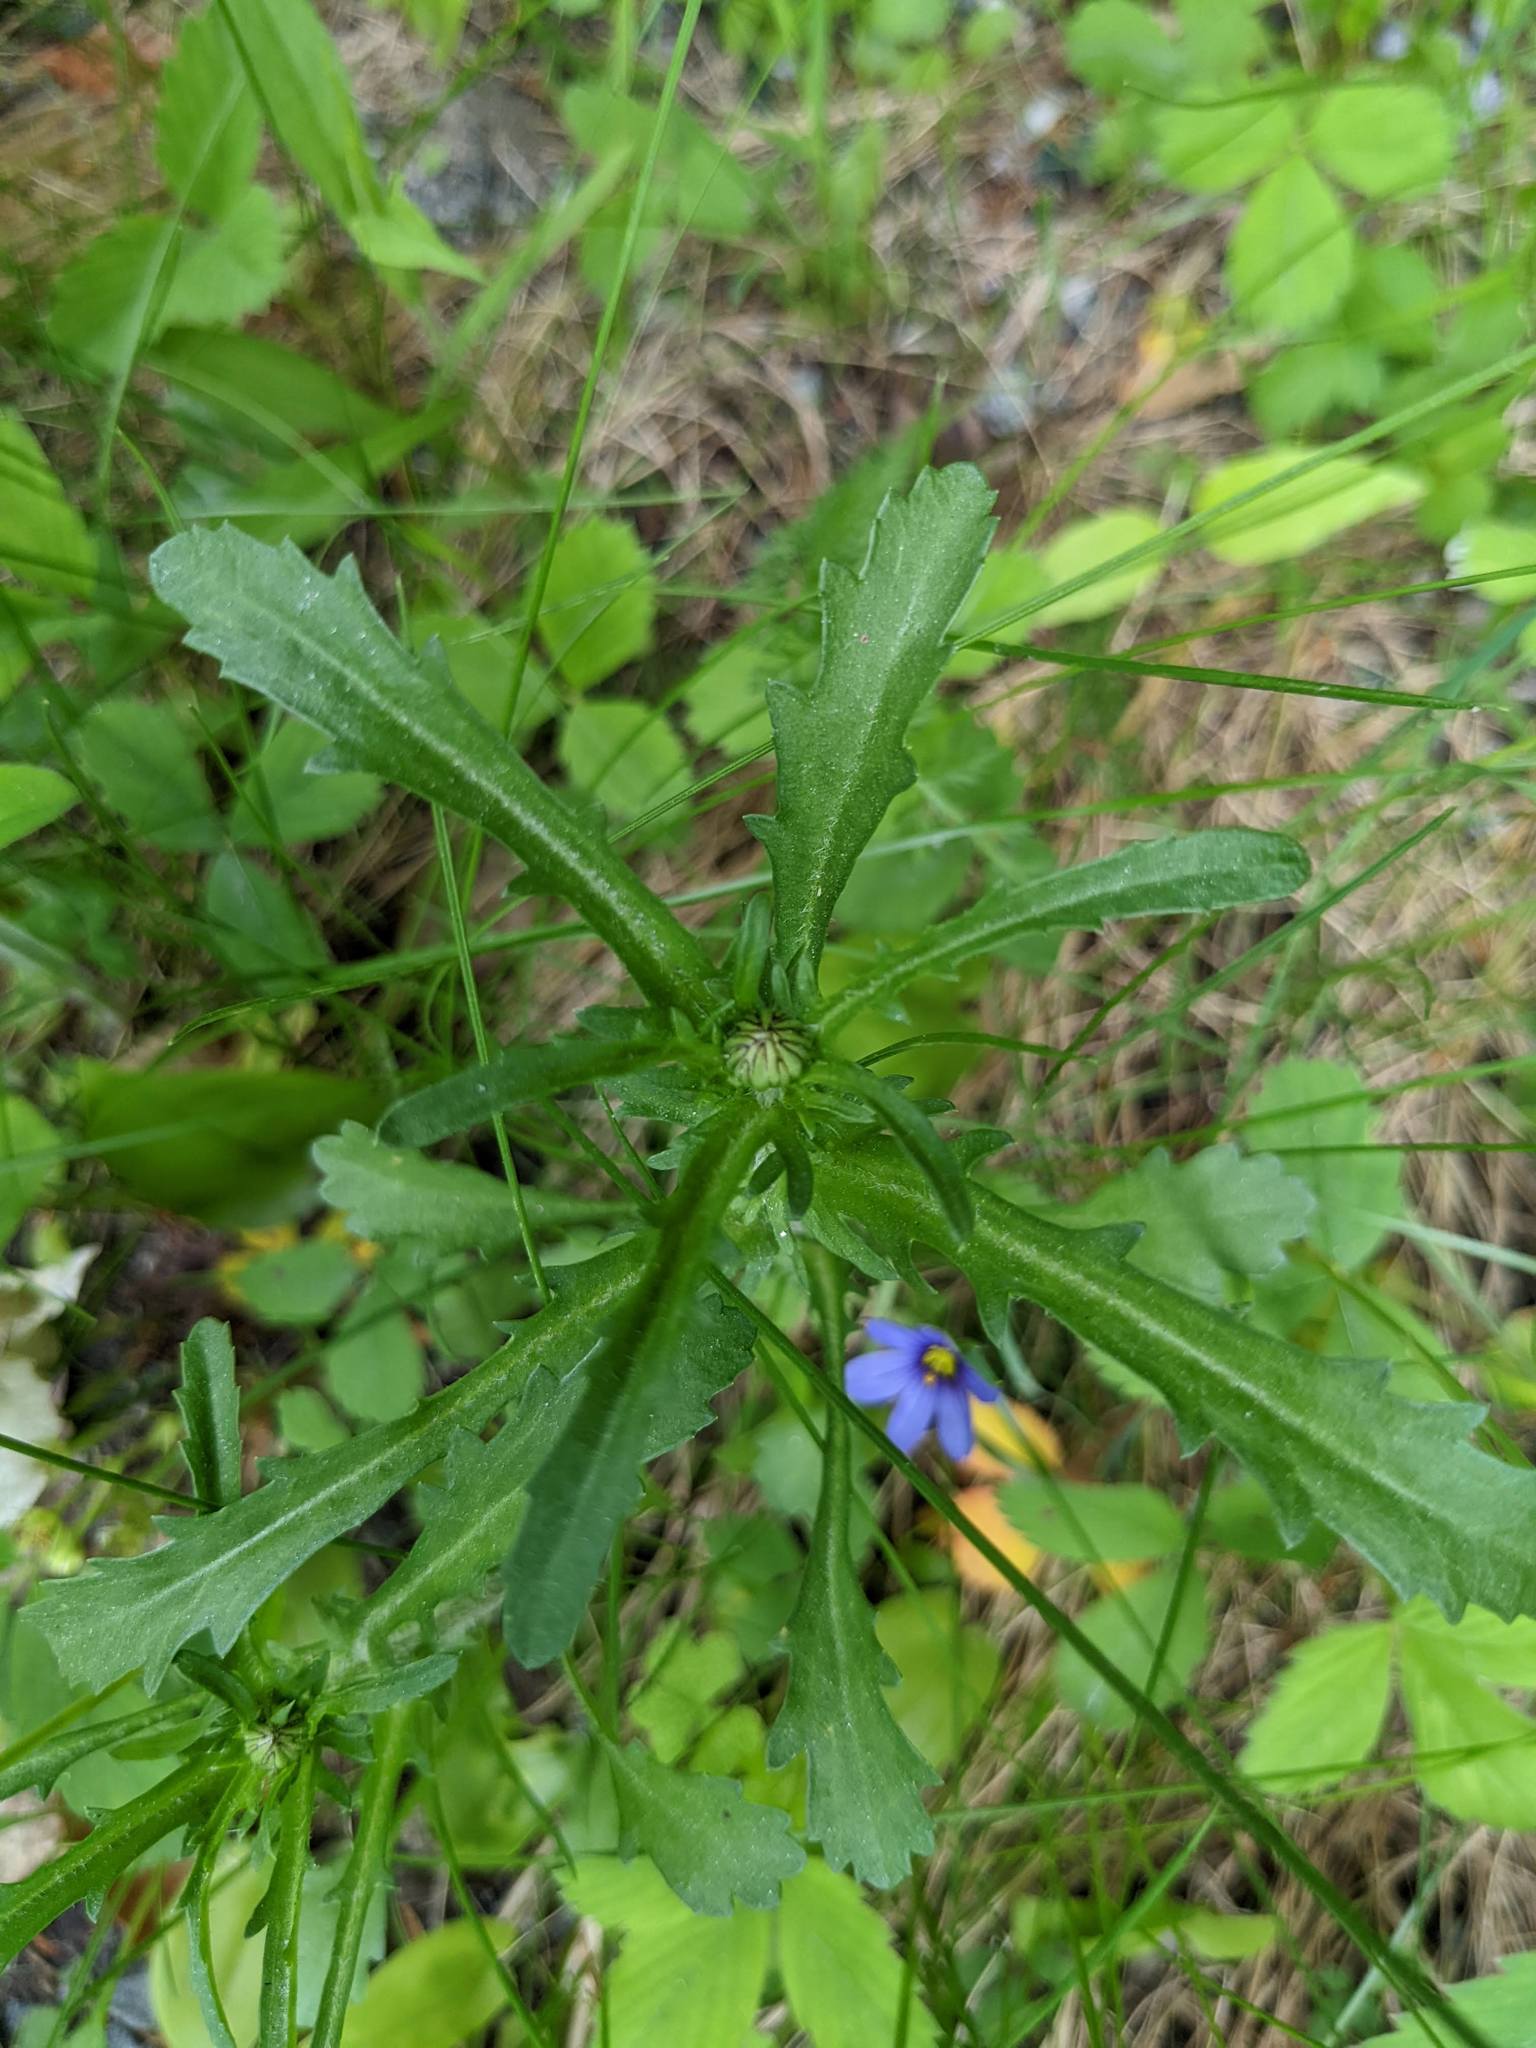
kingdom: Plantae
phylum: Tracheophyta
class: Magnoliopsida
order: Asterales
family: Asteraceae
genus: Leucanthemum
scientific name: Leucanthemum vulgare
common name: Oxeye daisy
